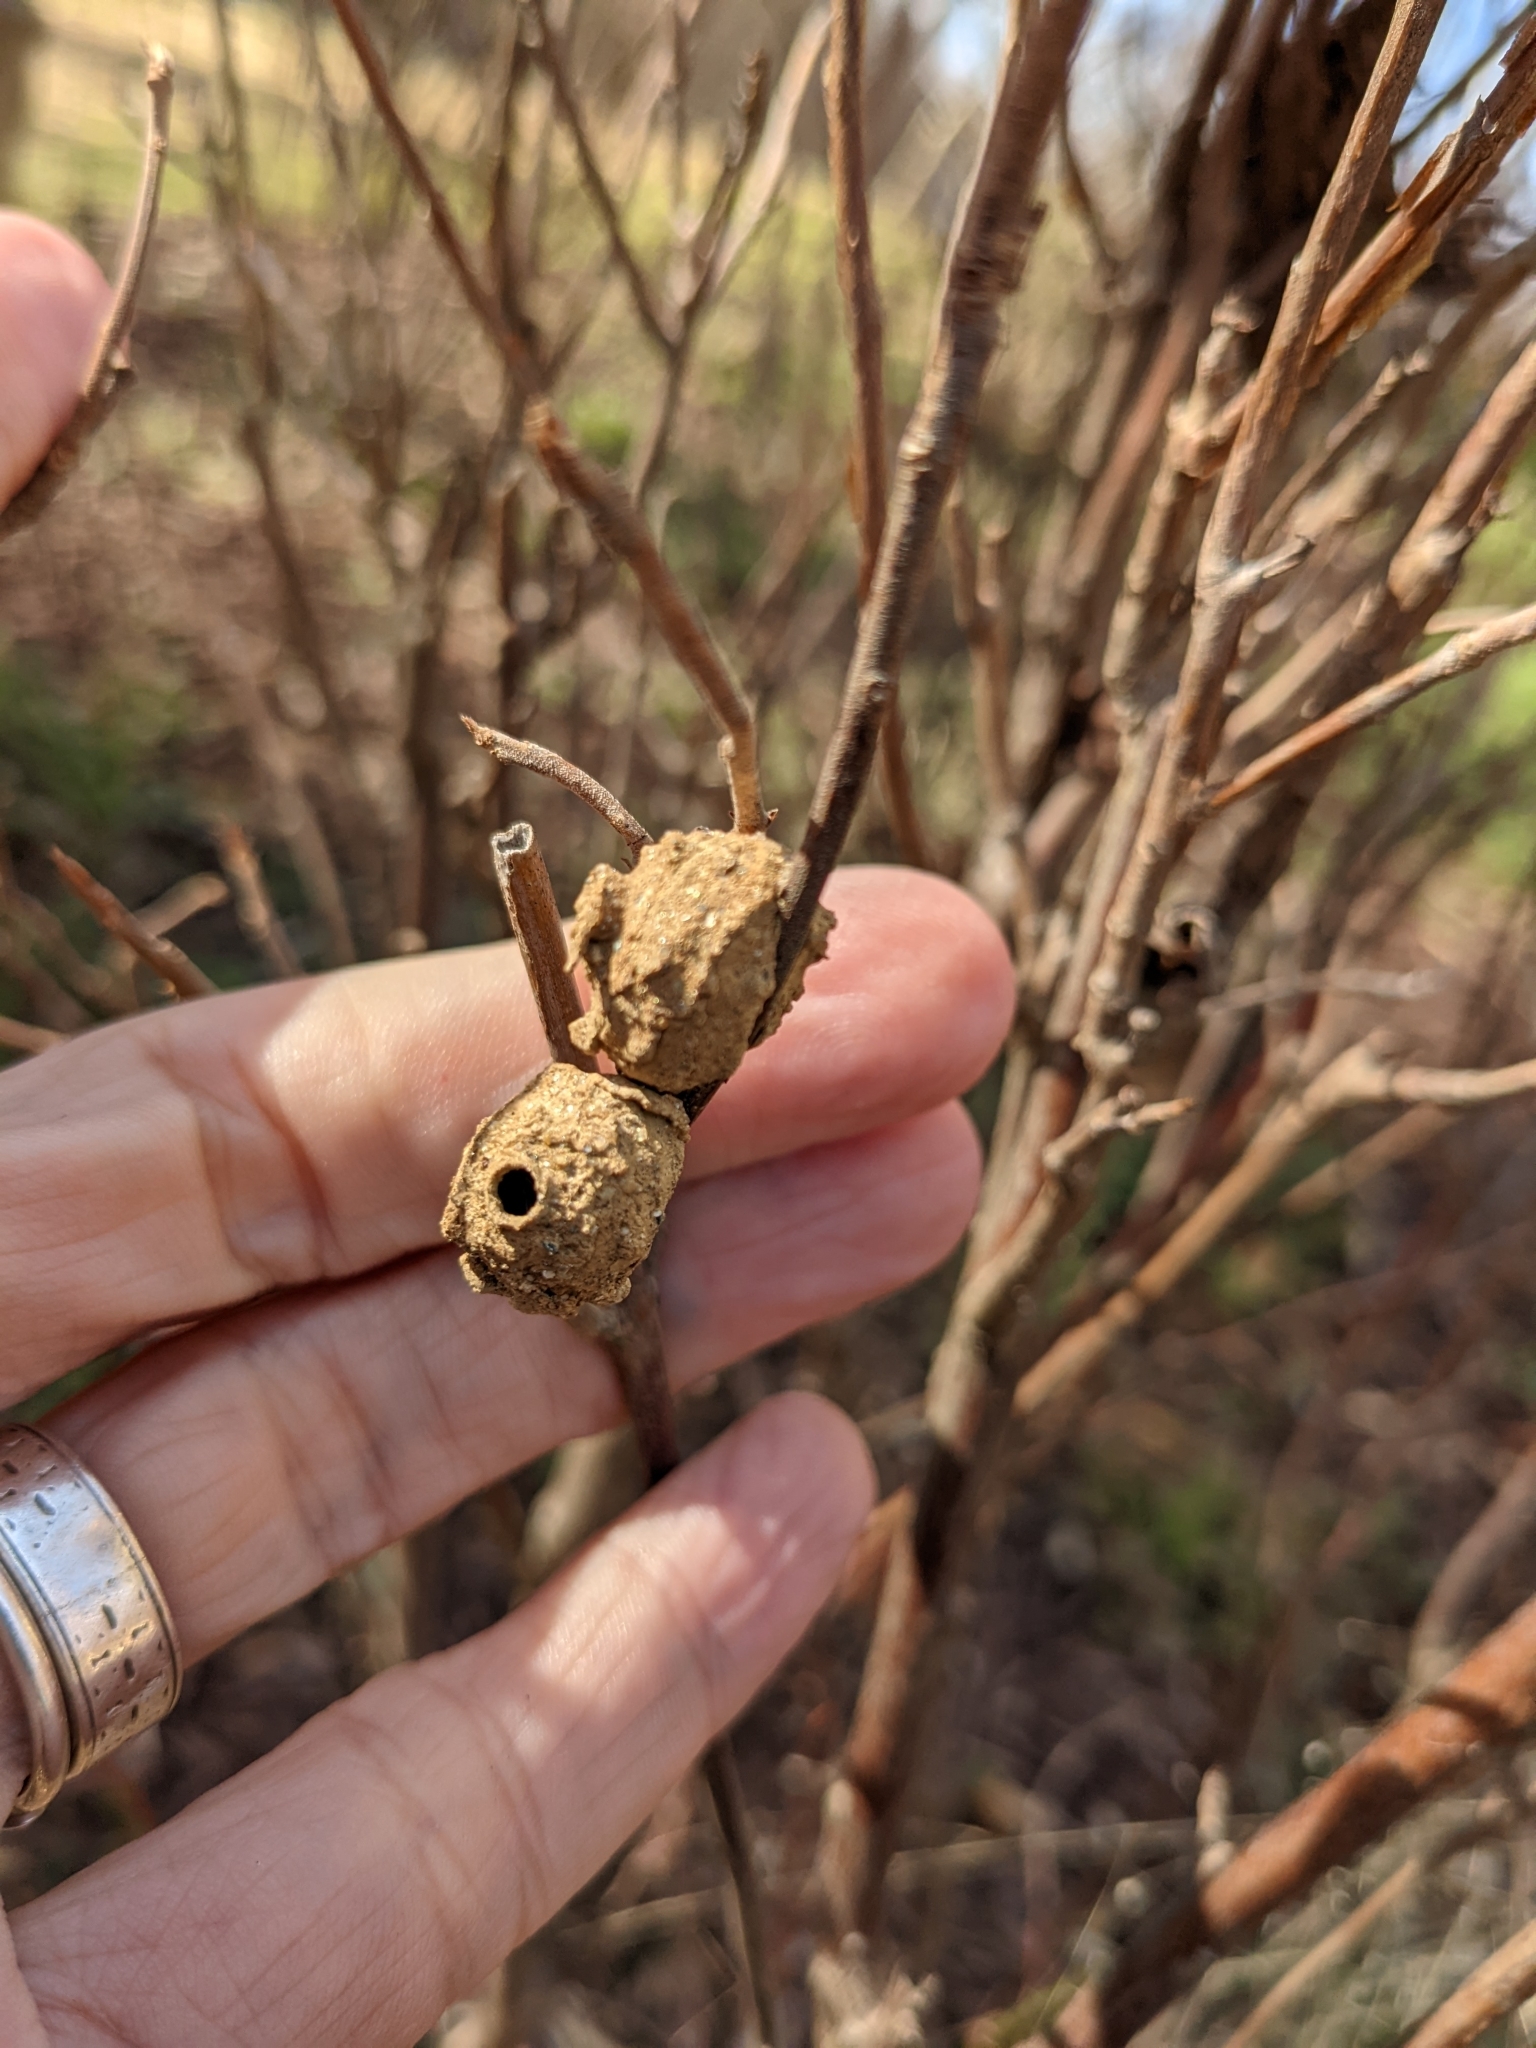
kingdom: Animalia
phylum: Arthropoda
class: Insecta
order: Hymenoptera
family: Vespidae
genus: Eumenes
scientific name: Eumenes
